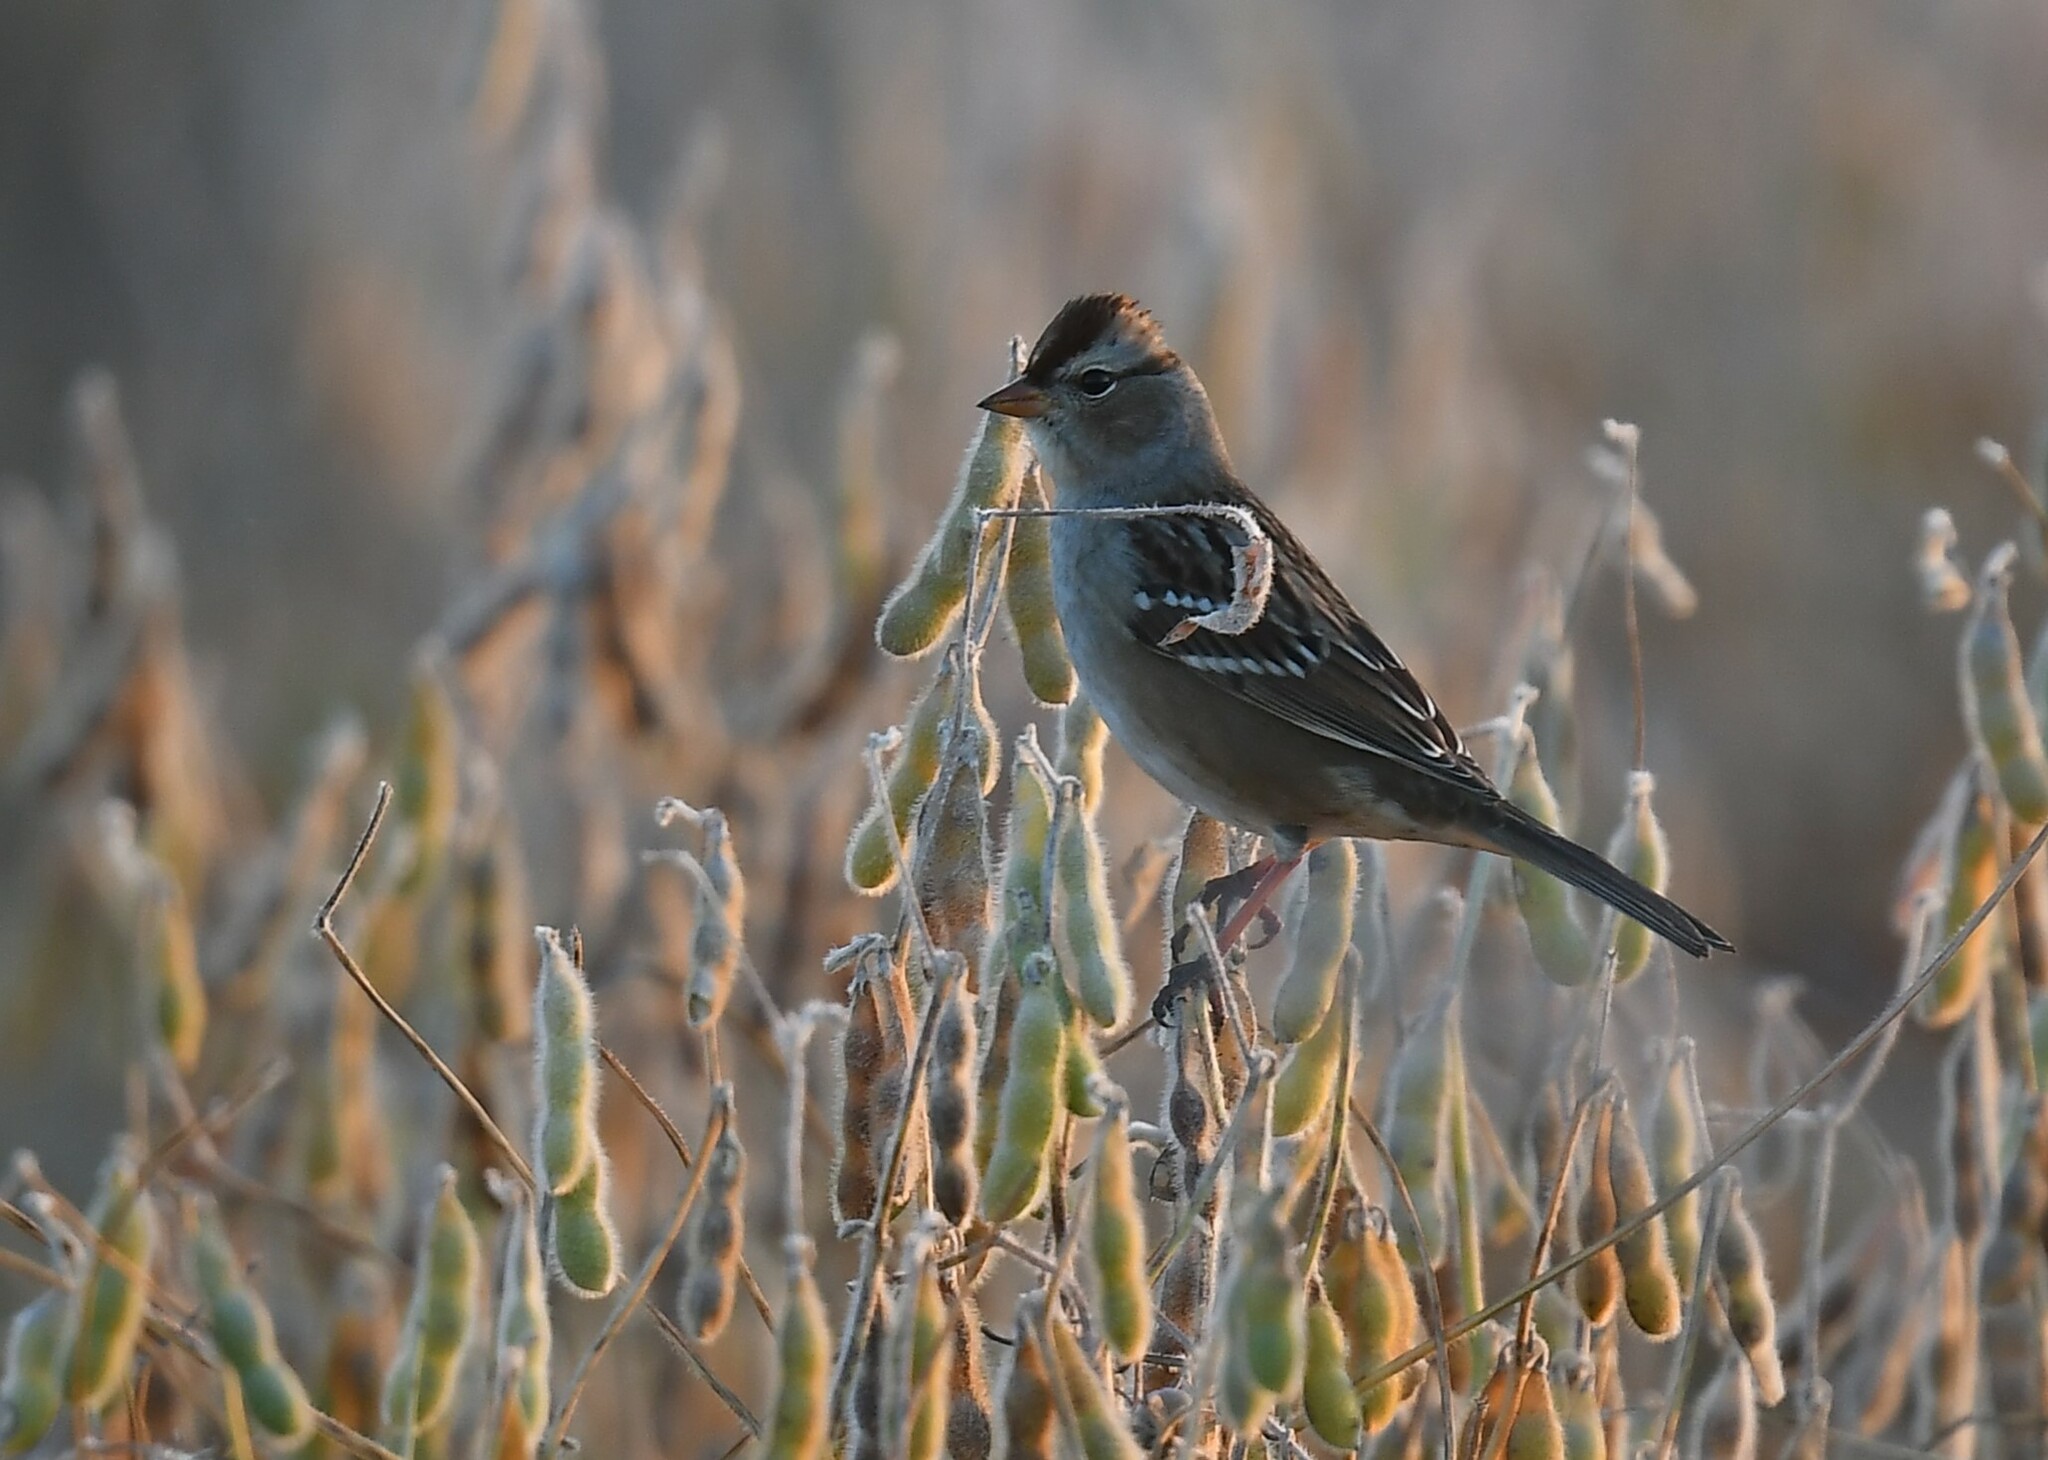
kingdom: Animalia
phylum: Chordata
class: Aves
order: Passeriformes
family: Passerellidae
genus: Zonotrichia
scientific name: Zonotrichia leucophrys
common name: White-crowned sparrow
